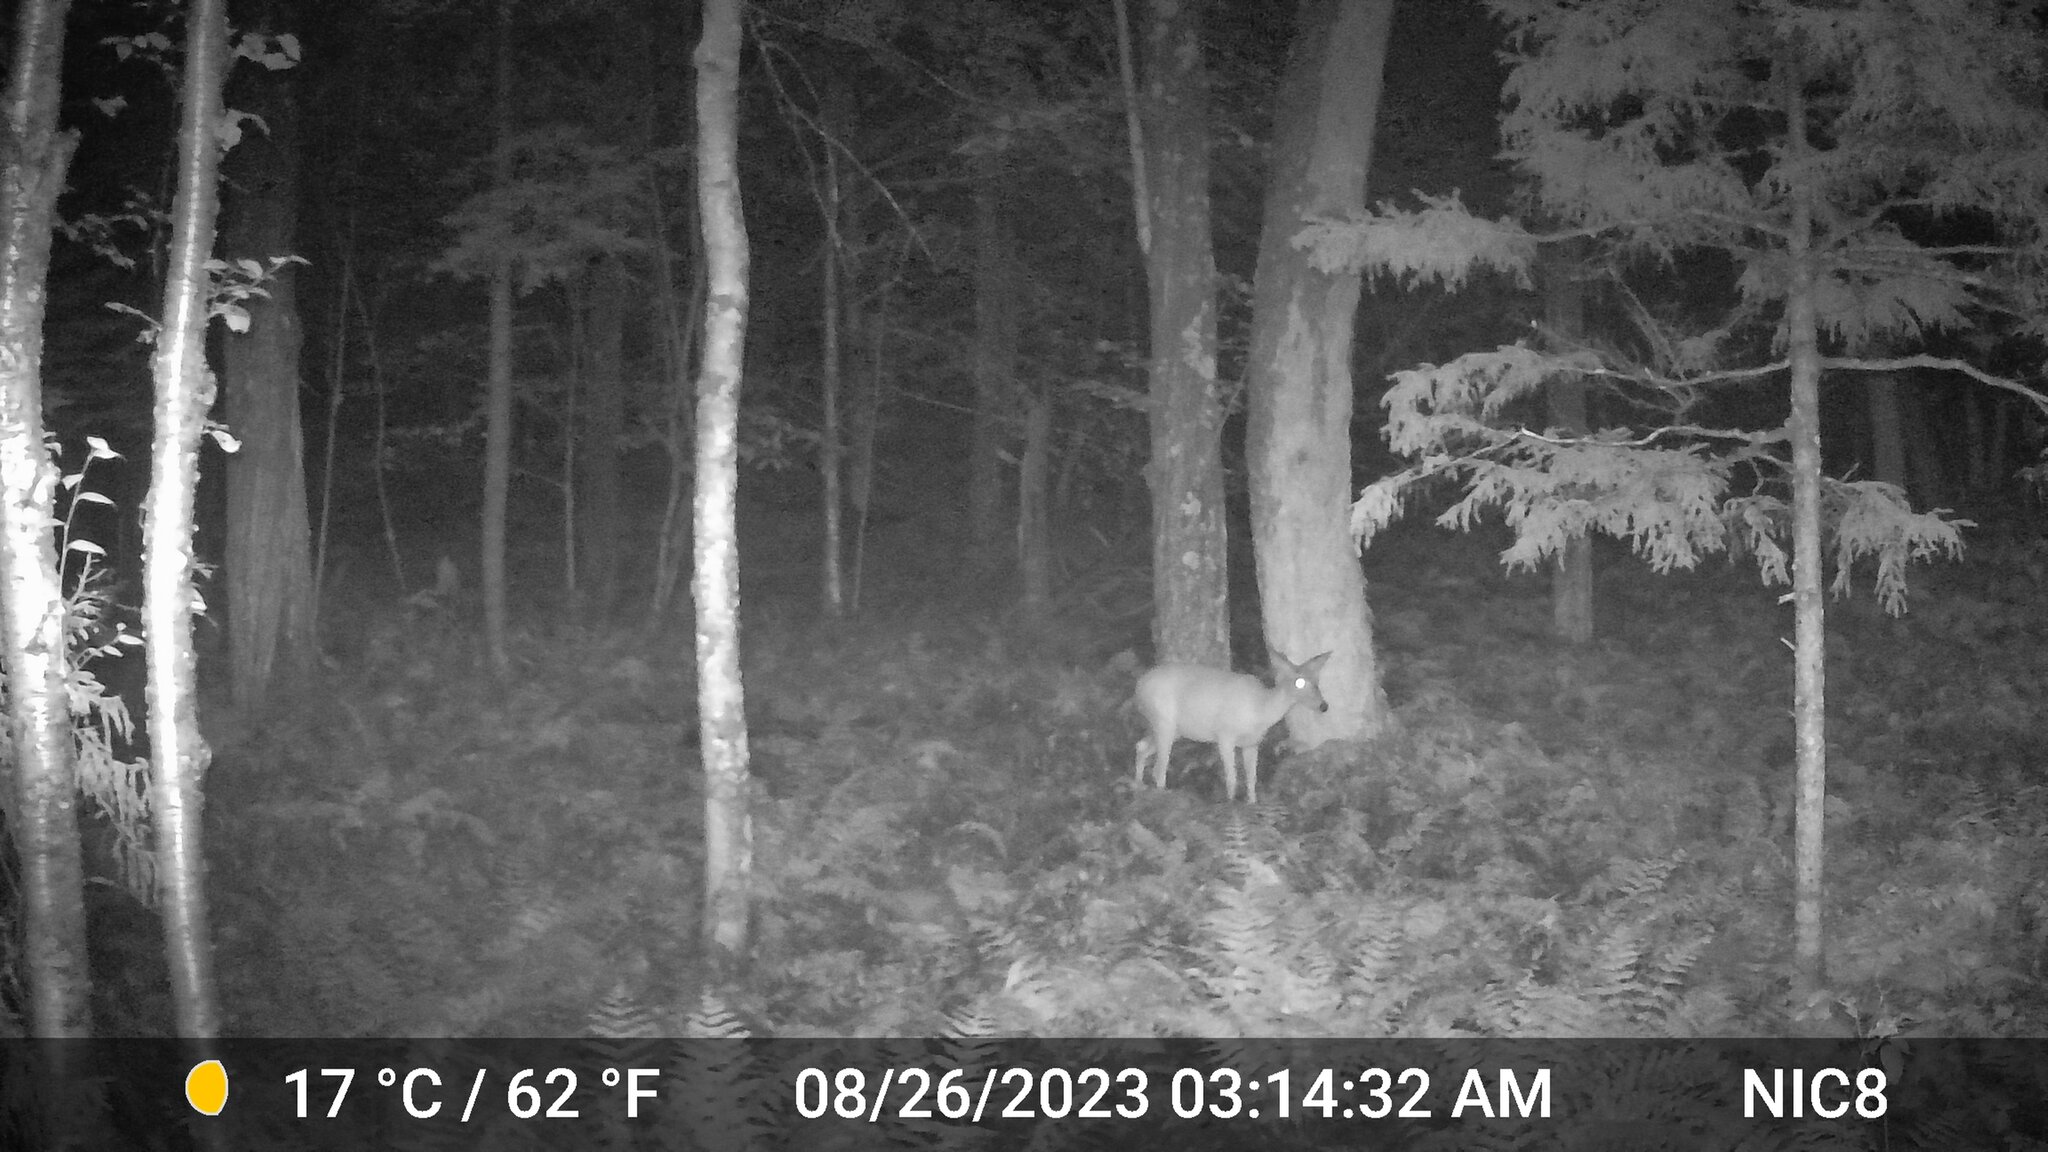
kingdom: Animalia
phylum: Chordata
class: Mammalia
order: Artiodactyla
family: Cervidae
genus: Odocoileus
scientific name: Odocoileus virginianus
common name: White-tailed deer
